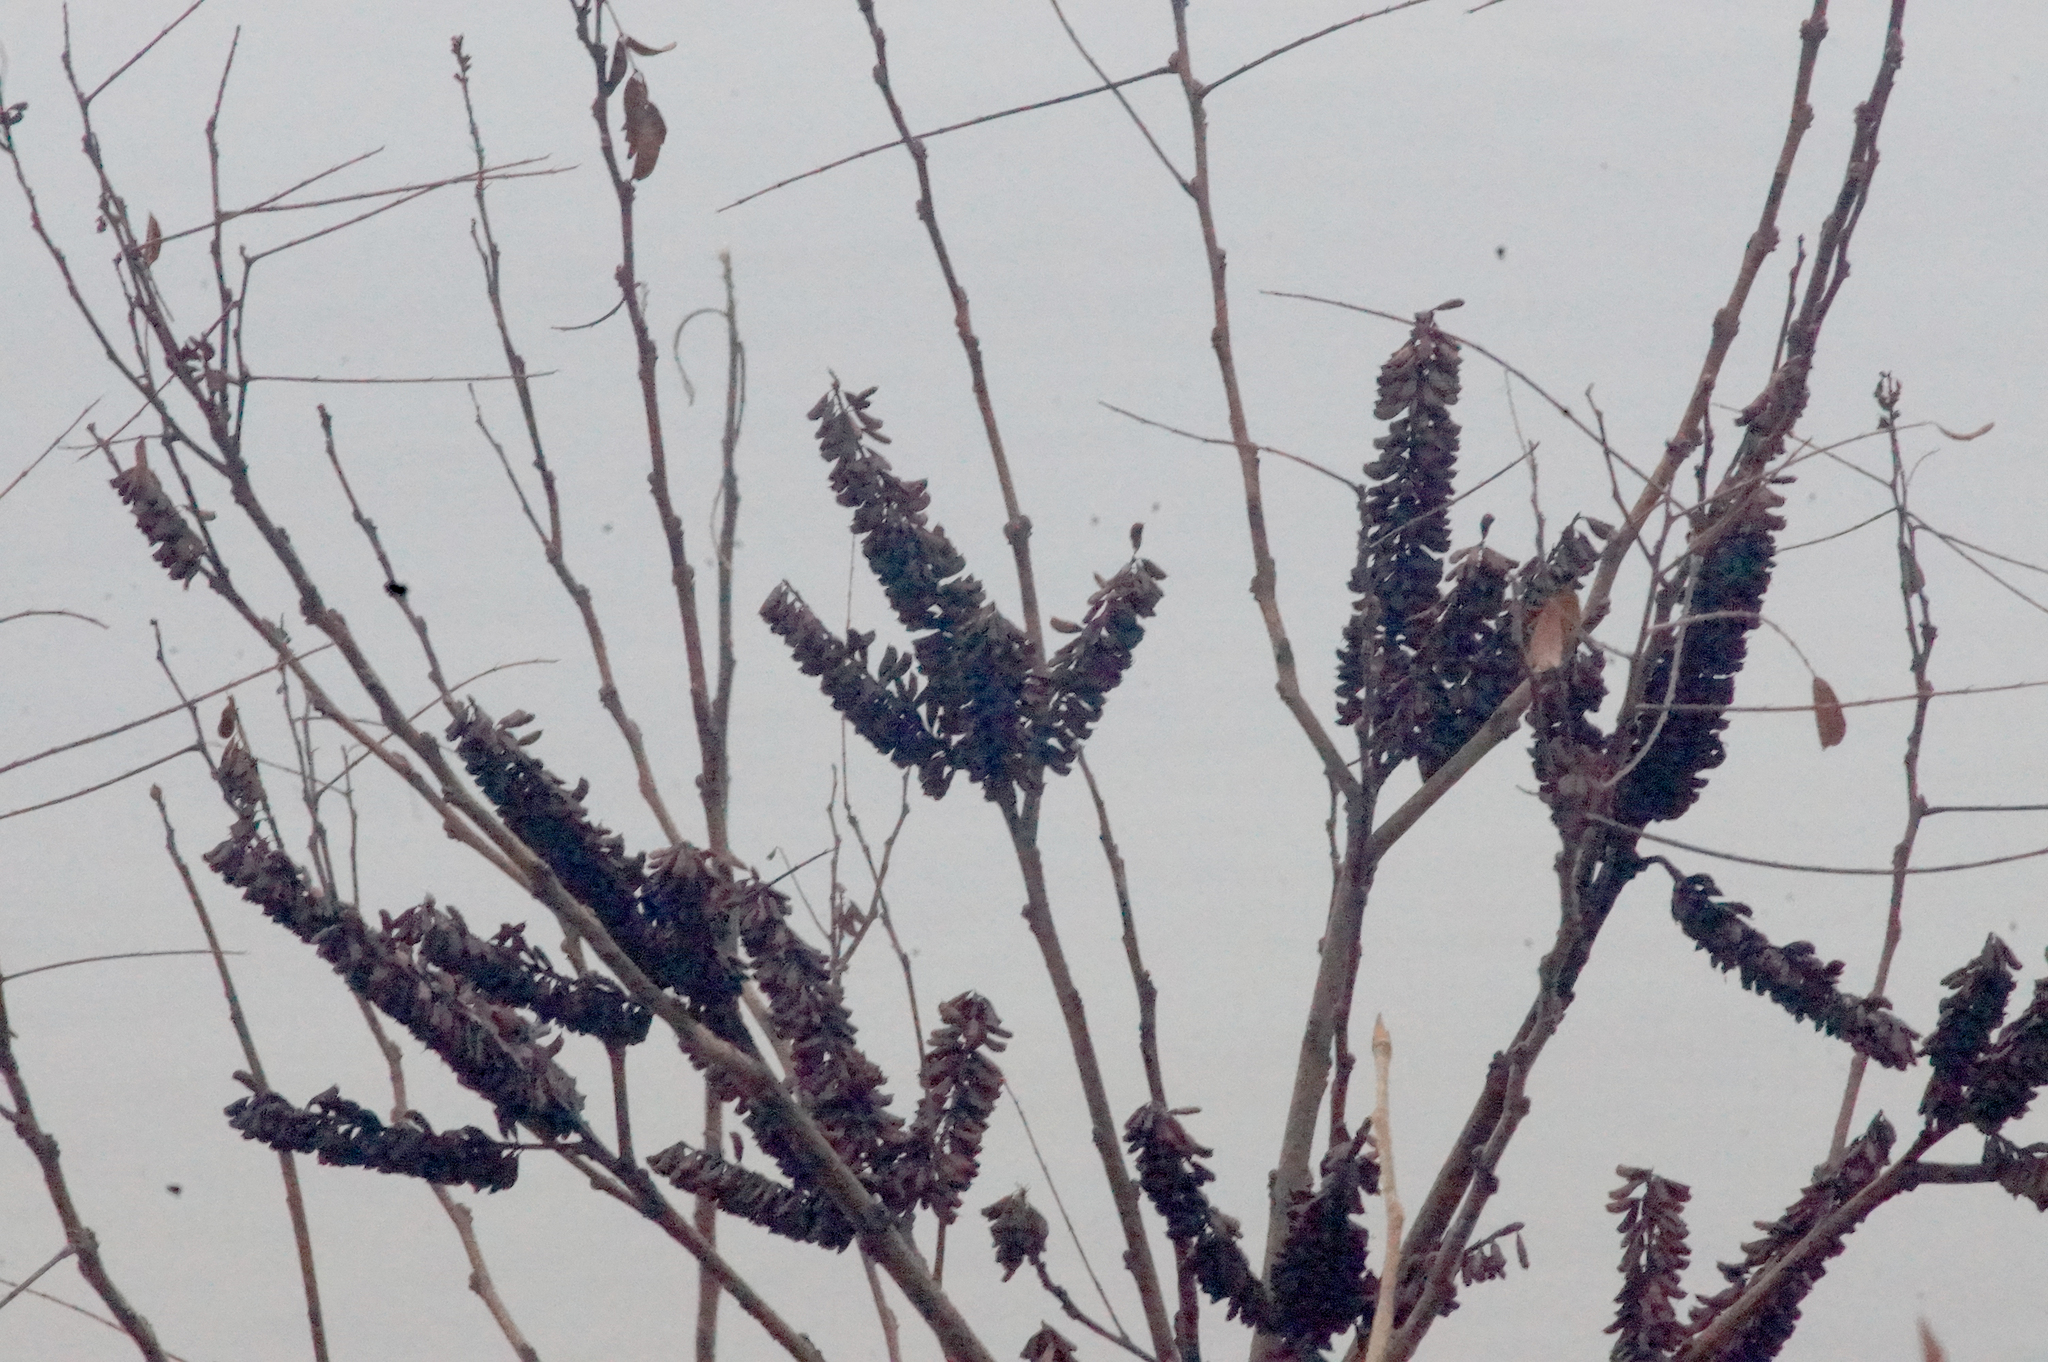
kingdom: Plantae
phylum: Tracheophyta
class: Magnoliopsida
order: Fabales
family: Fabaceae
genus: Amorpha
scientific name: Amorpha fruticosa
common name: False indigo
